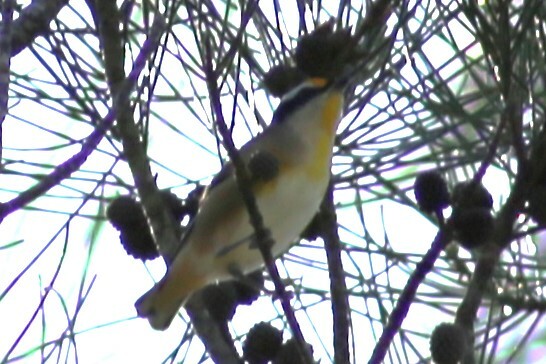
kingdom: Animalia
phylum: Chordata
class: Aves
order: Passeriformes
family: Pardalotidae
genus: Pardalotus
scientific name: Pardalotus striatus
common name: Striated pardalote
